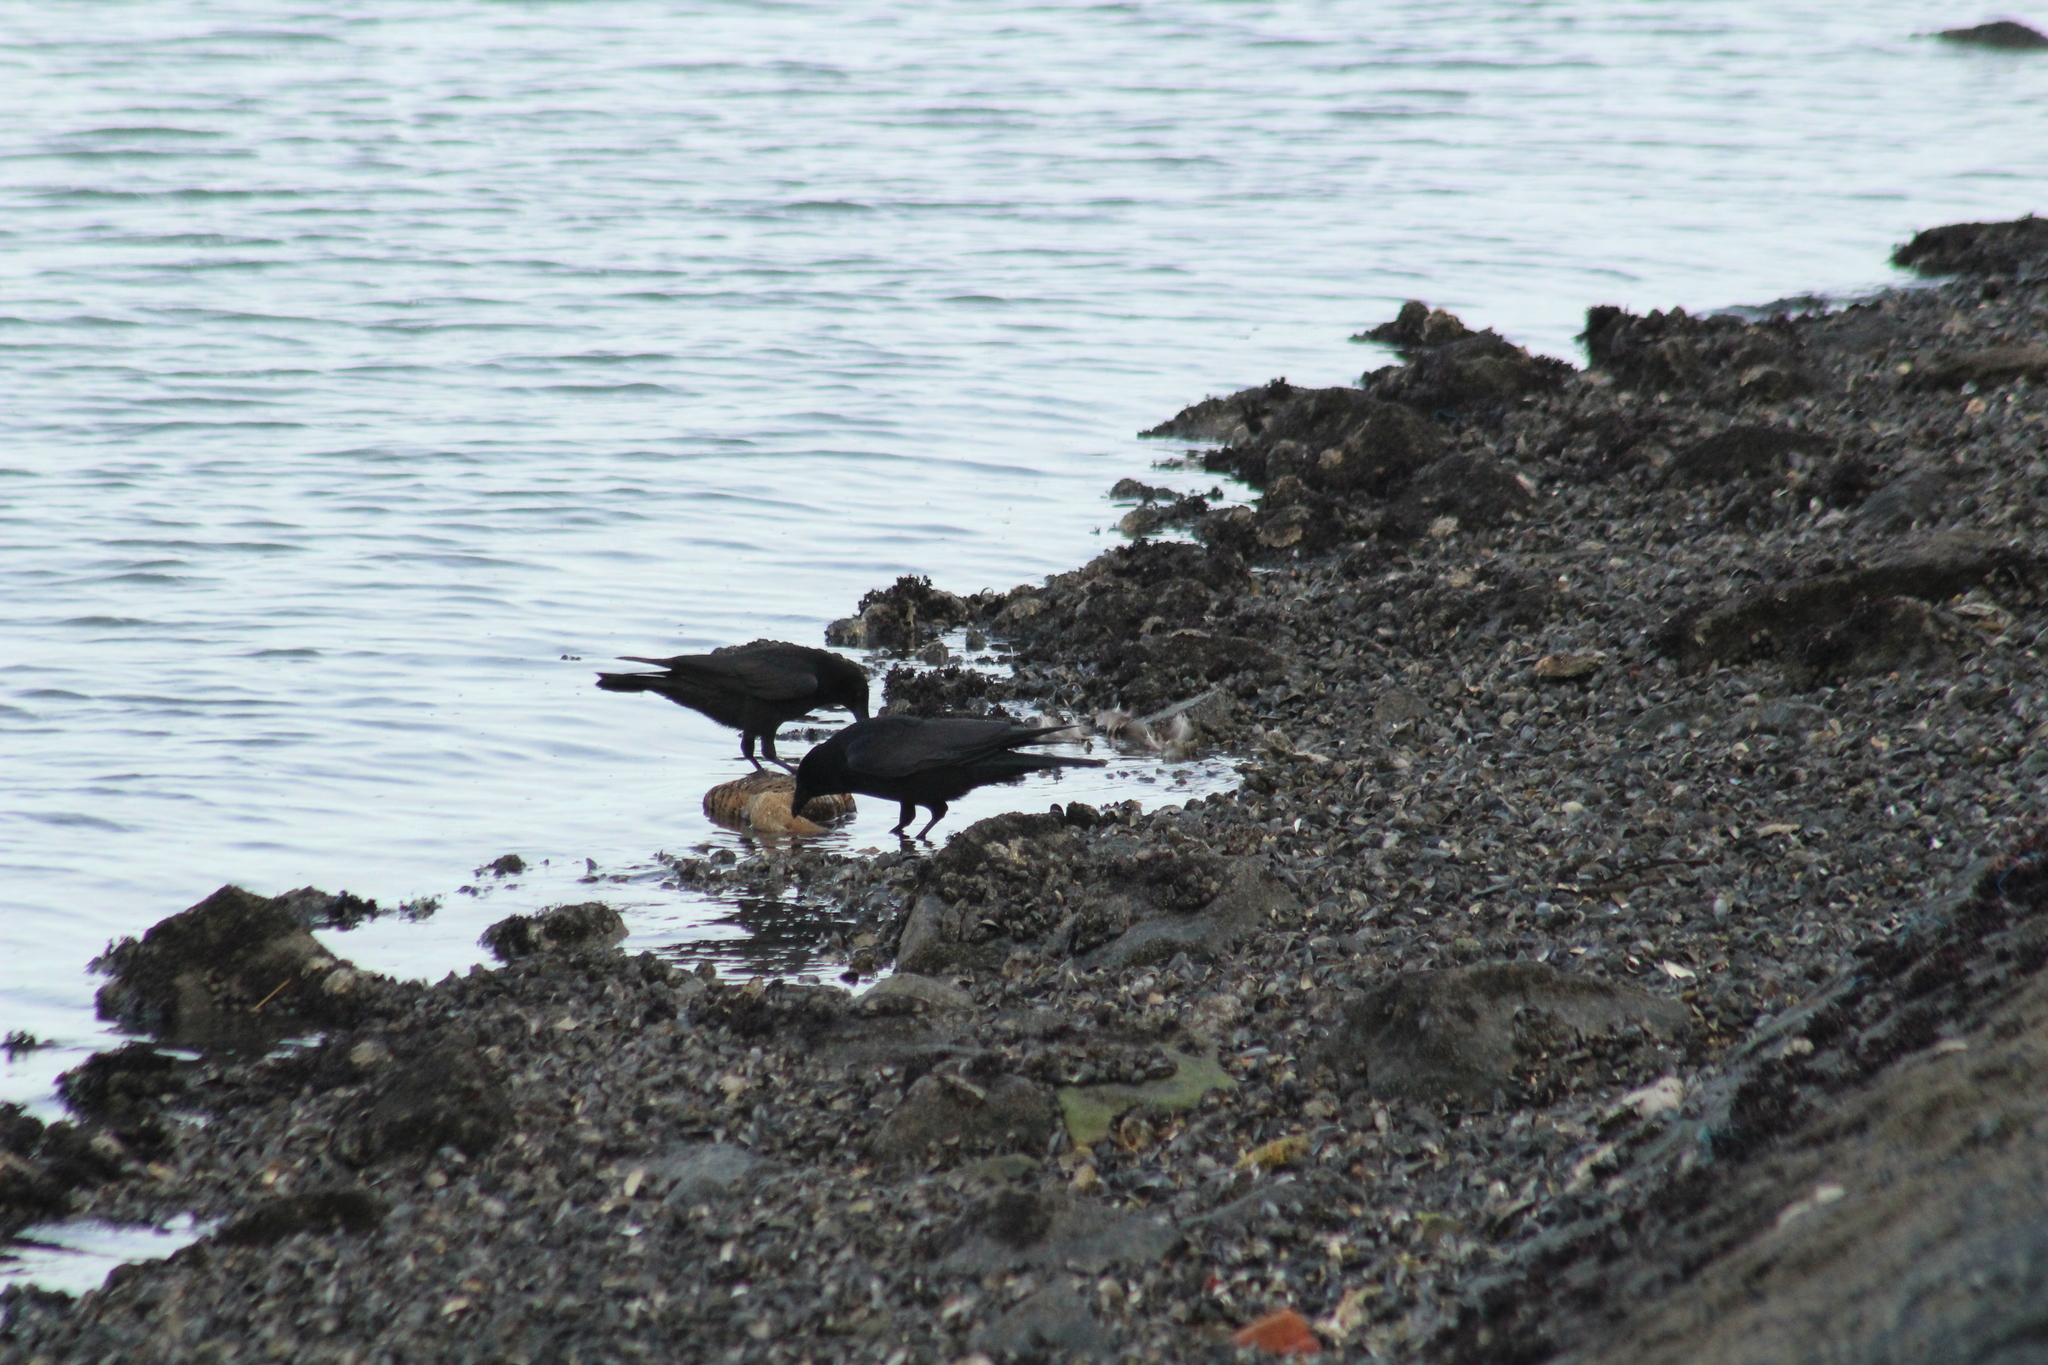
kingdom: Animalia
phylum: Chordata
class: Aves
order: Passeriformes
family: Corvidae
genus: Corvus
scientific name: Corvus corone
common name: Carrion crow
